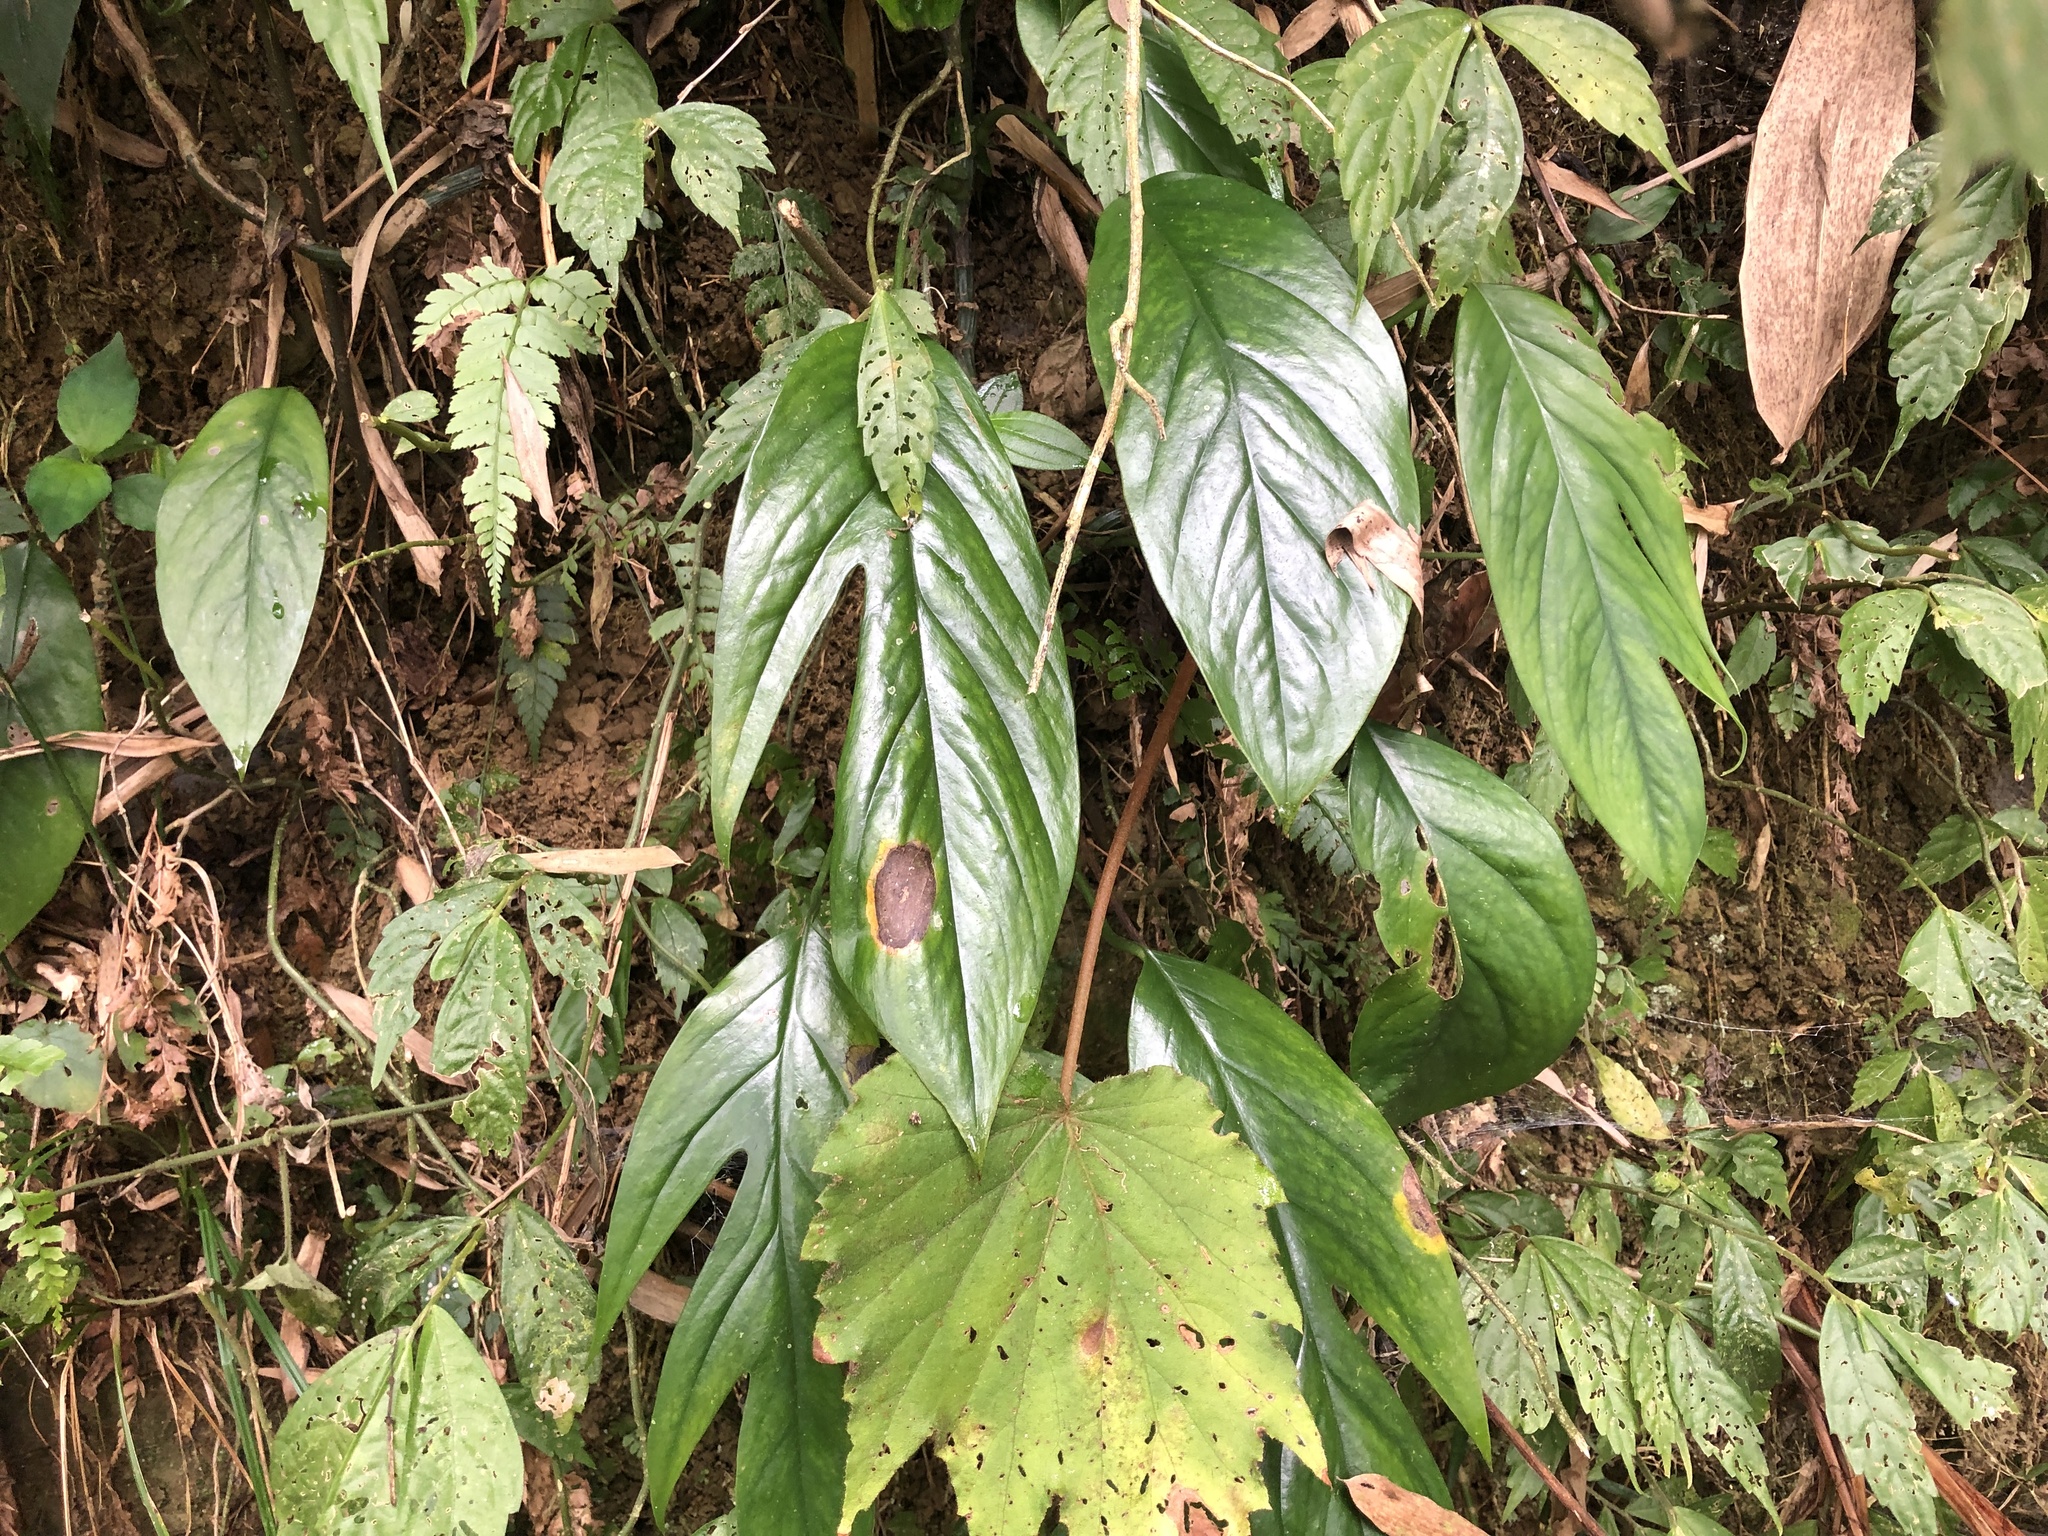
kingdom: Plantae
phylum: Tracheophyta
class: Liliopsida
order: Alismatales
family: Araceae
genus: Epipremnum
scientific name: Epipremnum pinnatum
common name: Centipede tongavine
